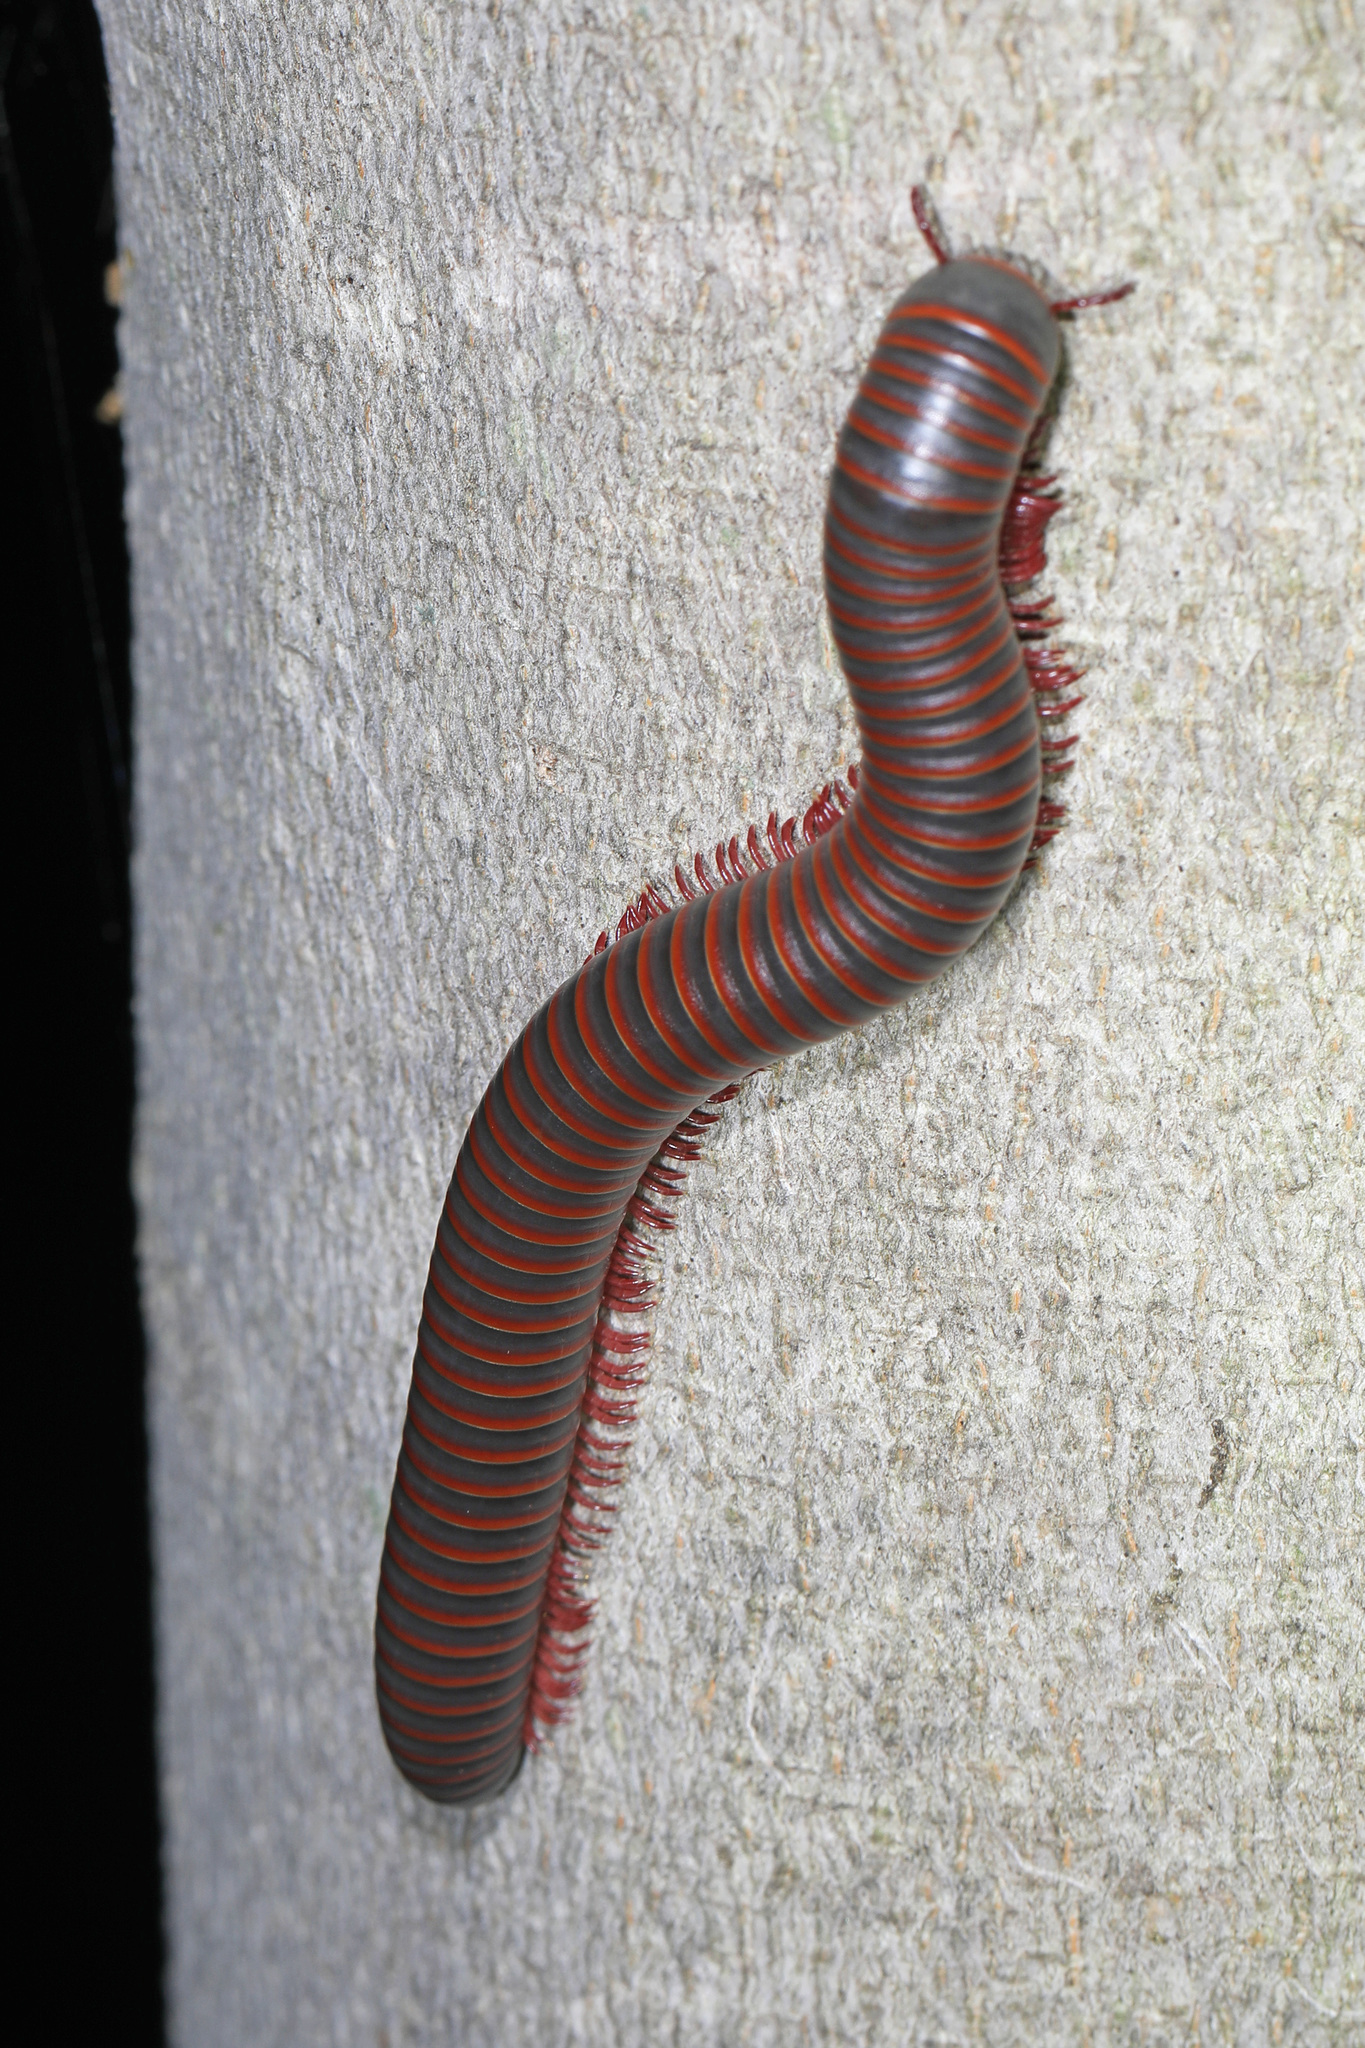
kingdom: Animalia
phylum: Arthropoda
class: Diplopoda
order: Spirobolida
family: Spirobolidae
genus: Narceus
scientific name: Narceus
